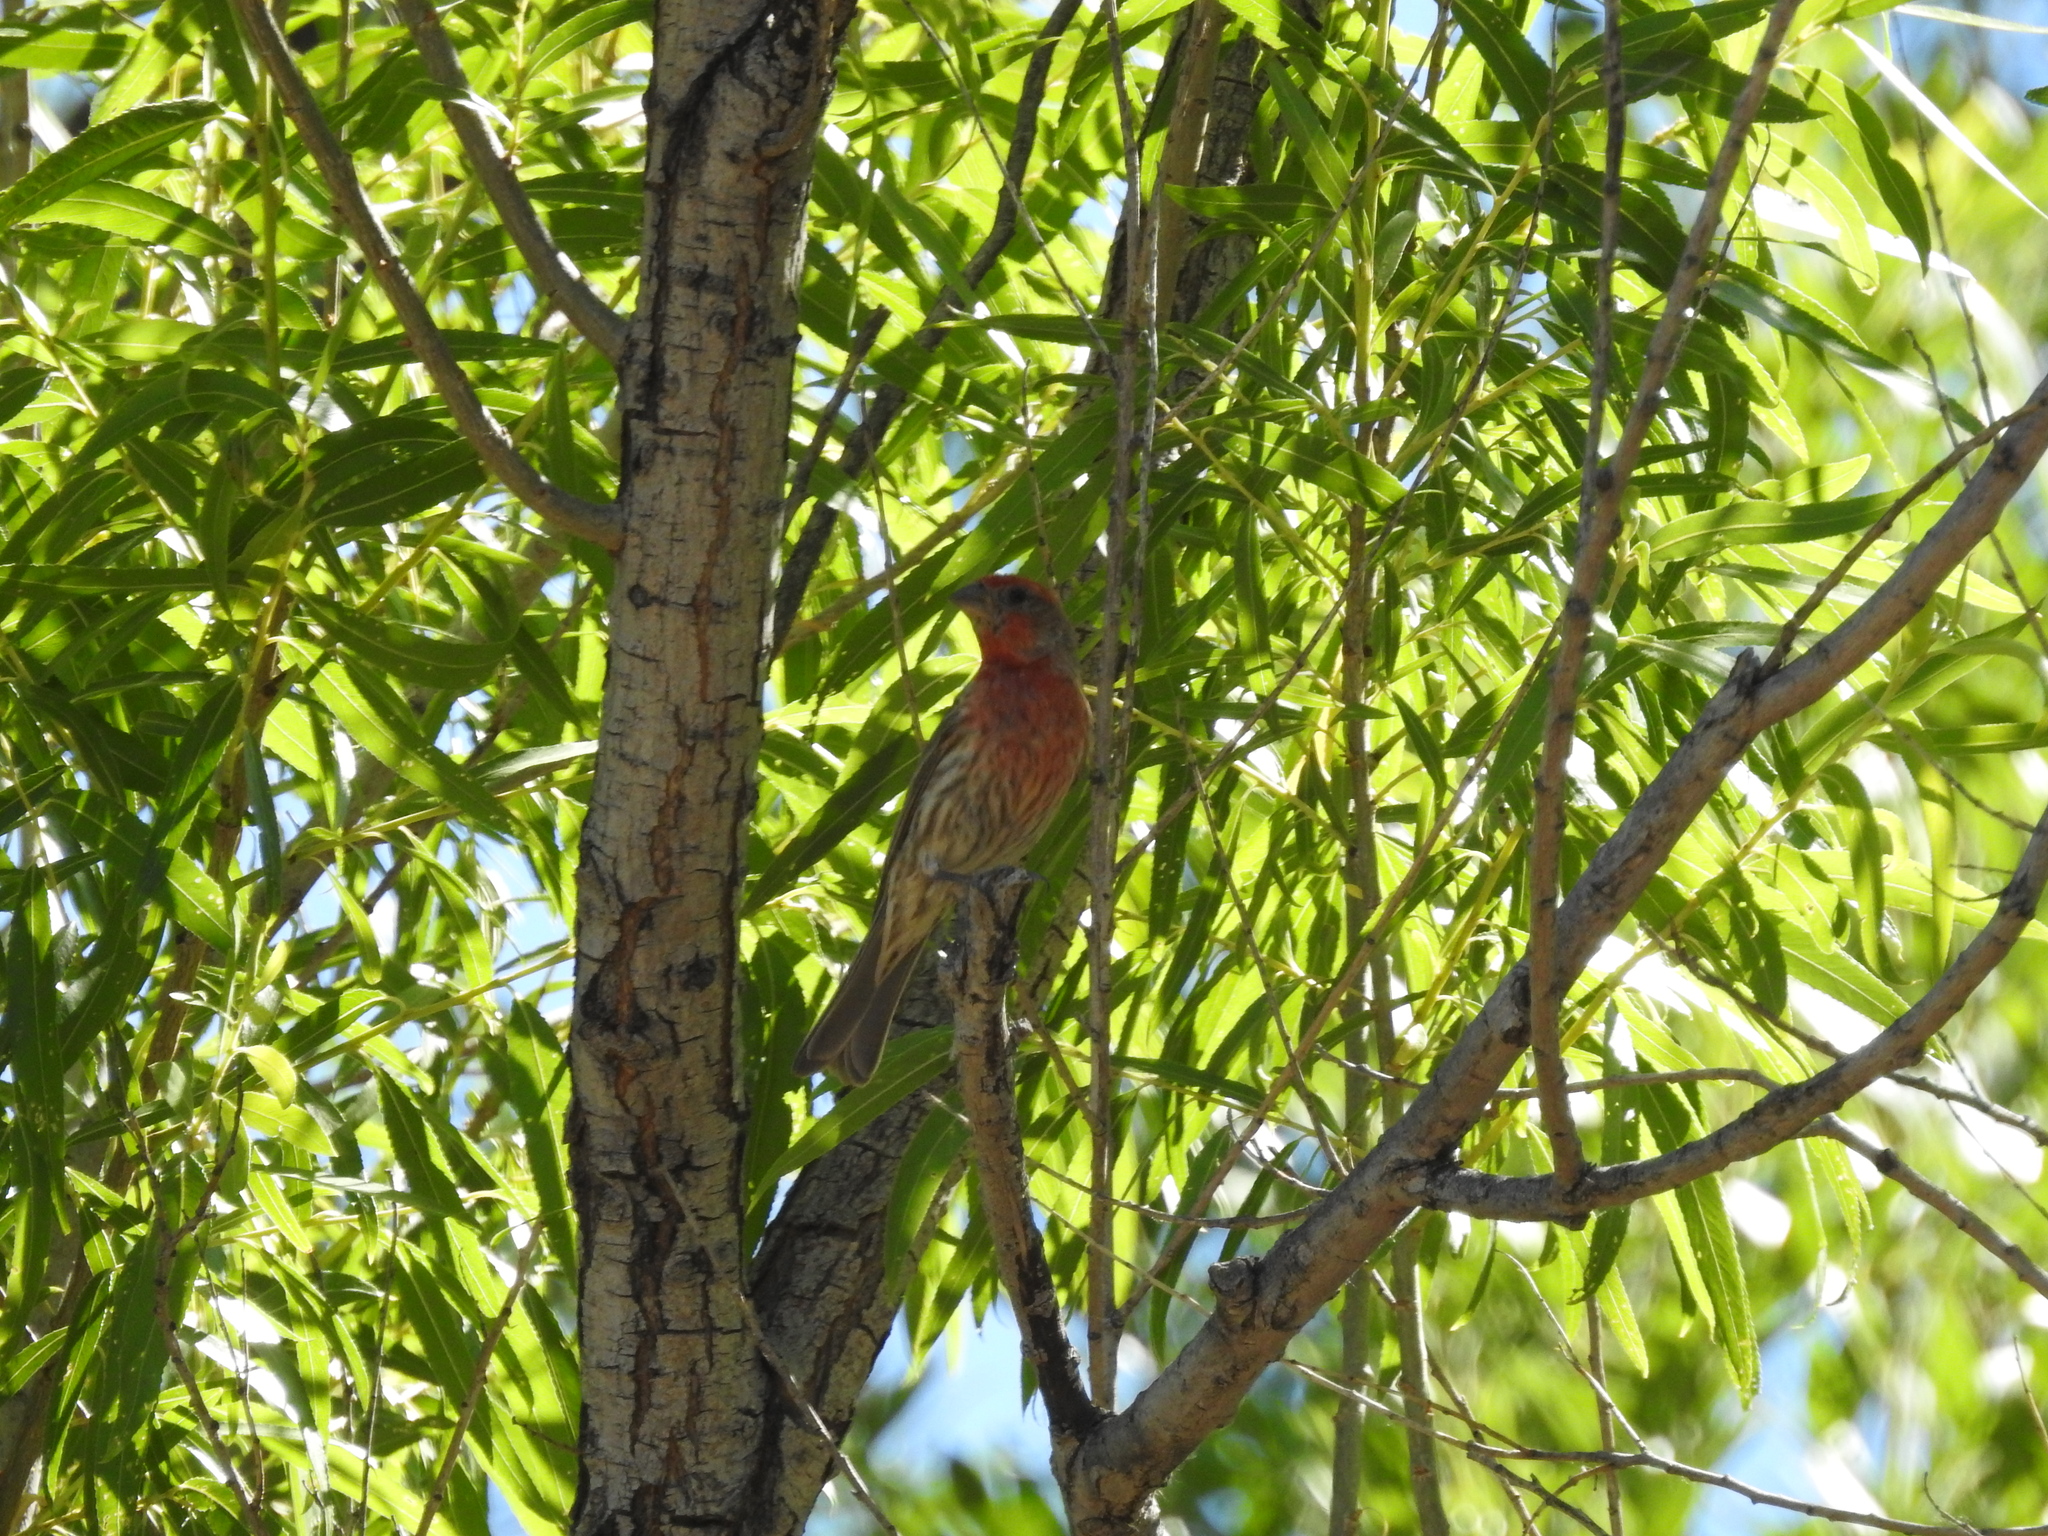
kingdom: Animalia
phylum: Chordata
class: Aves
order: Passeriformes
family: Fringillidae
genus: Haemorhous
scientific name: Haemorhous mexicanus
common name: House finch
